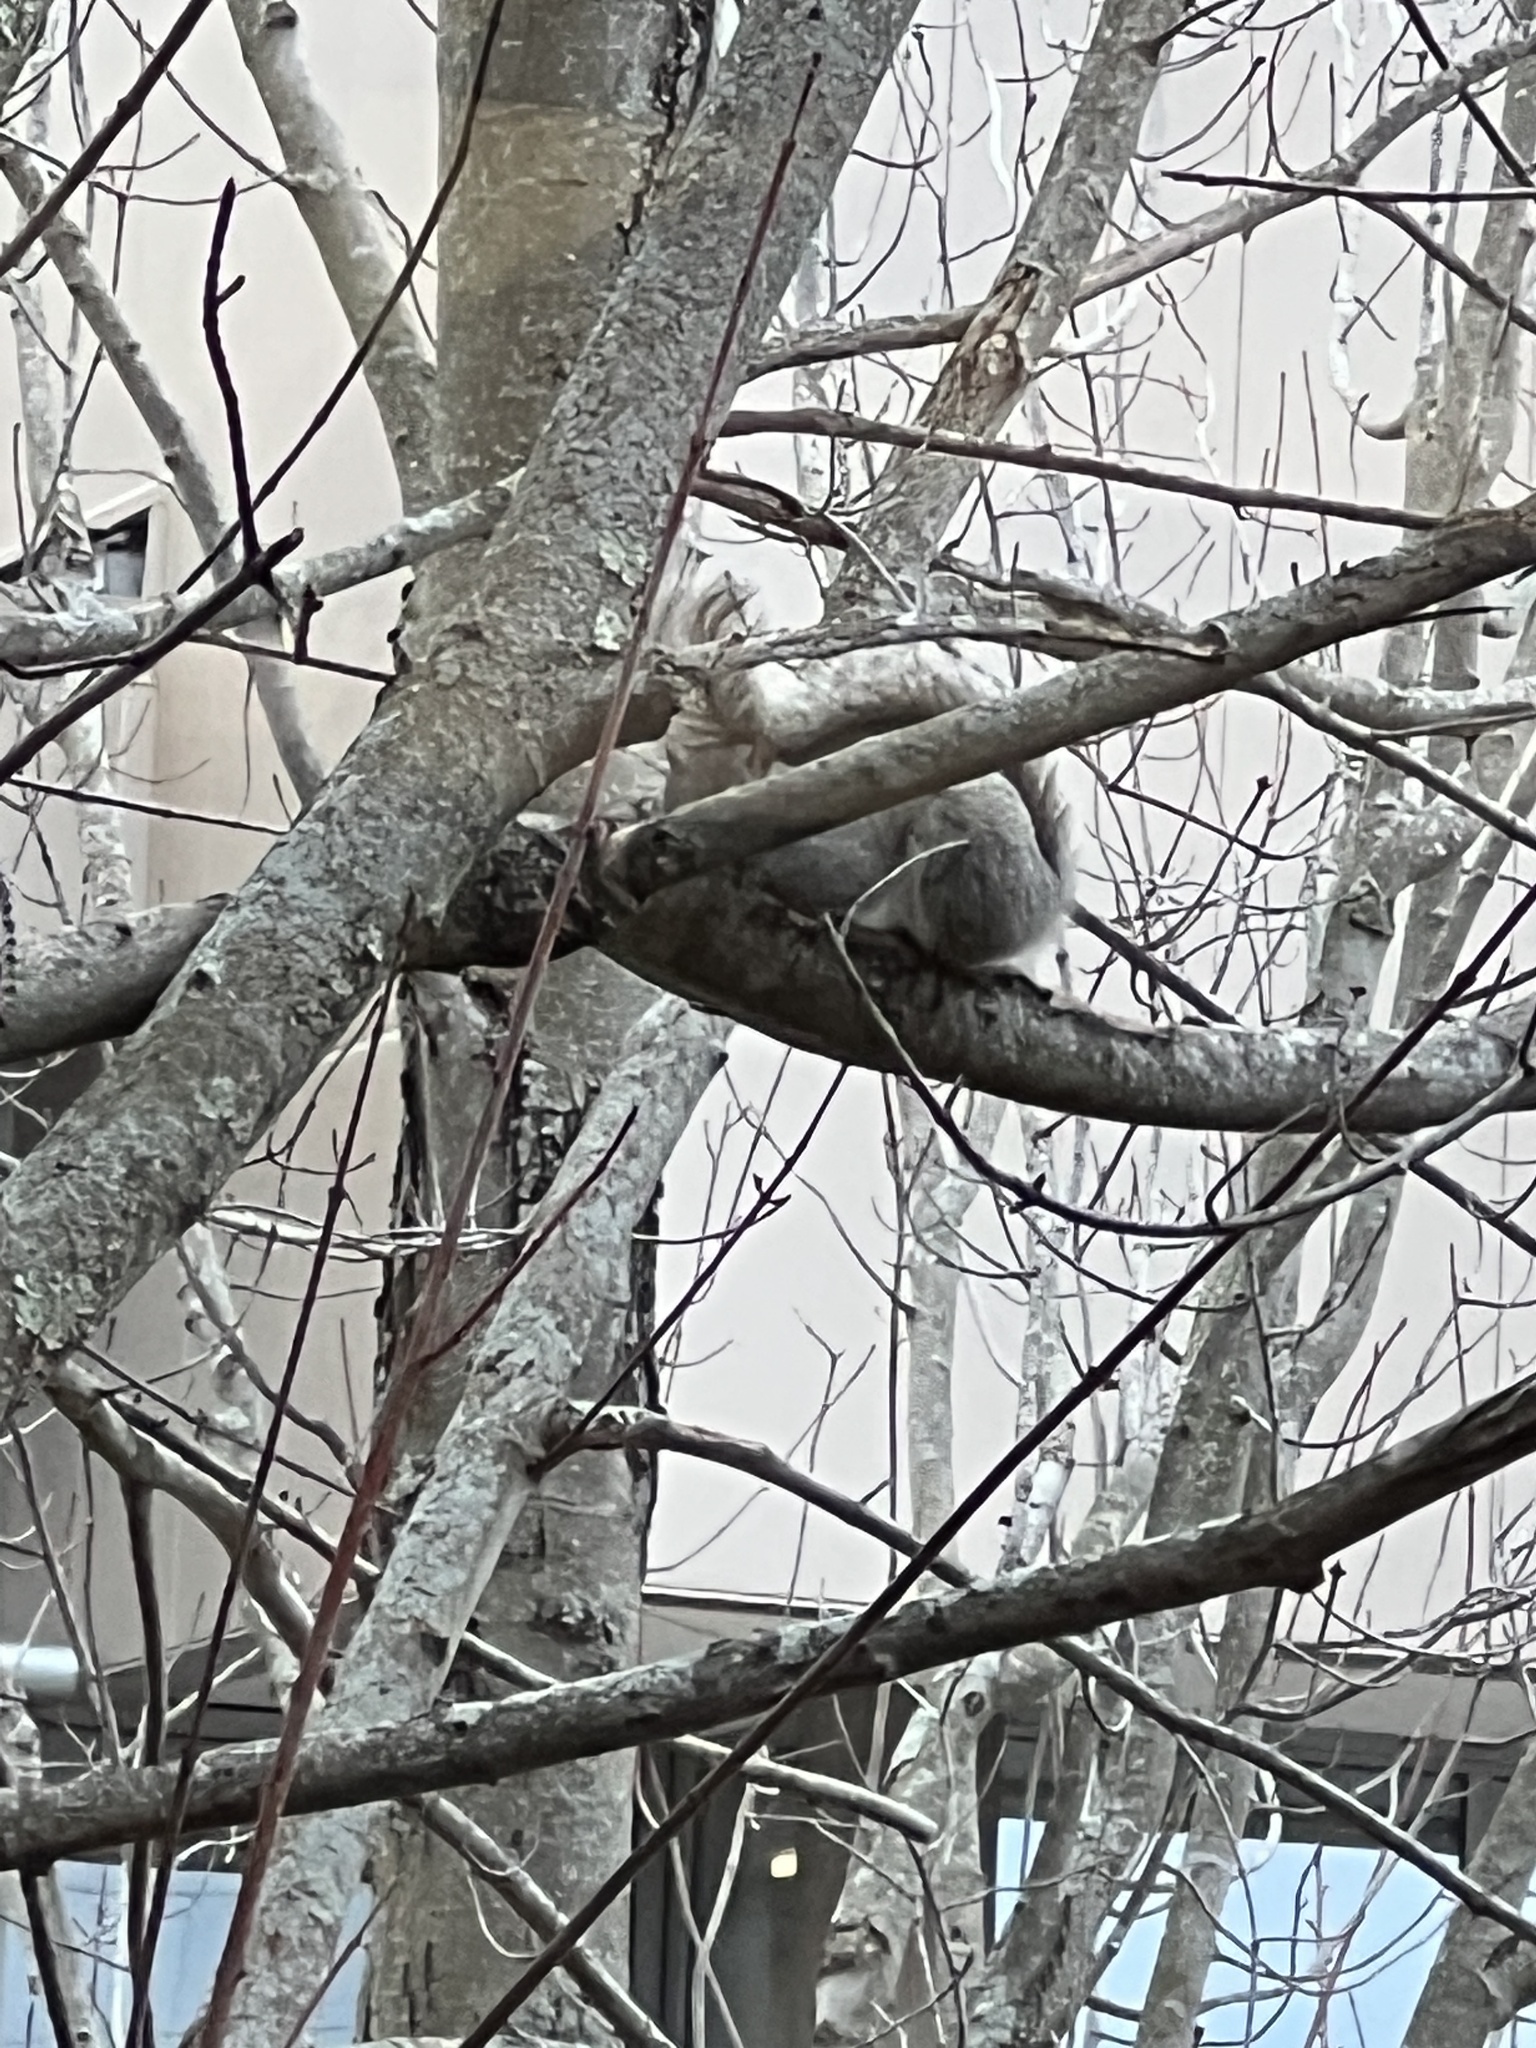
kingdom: Animalia
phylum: Chordata
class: Mammalia
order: Rodentia
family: Sciuridae
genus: Sciurus
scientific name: Sciurus carolinensis
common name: Eastern gray squirrel
